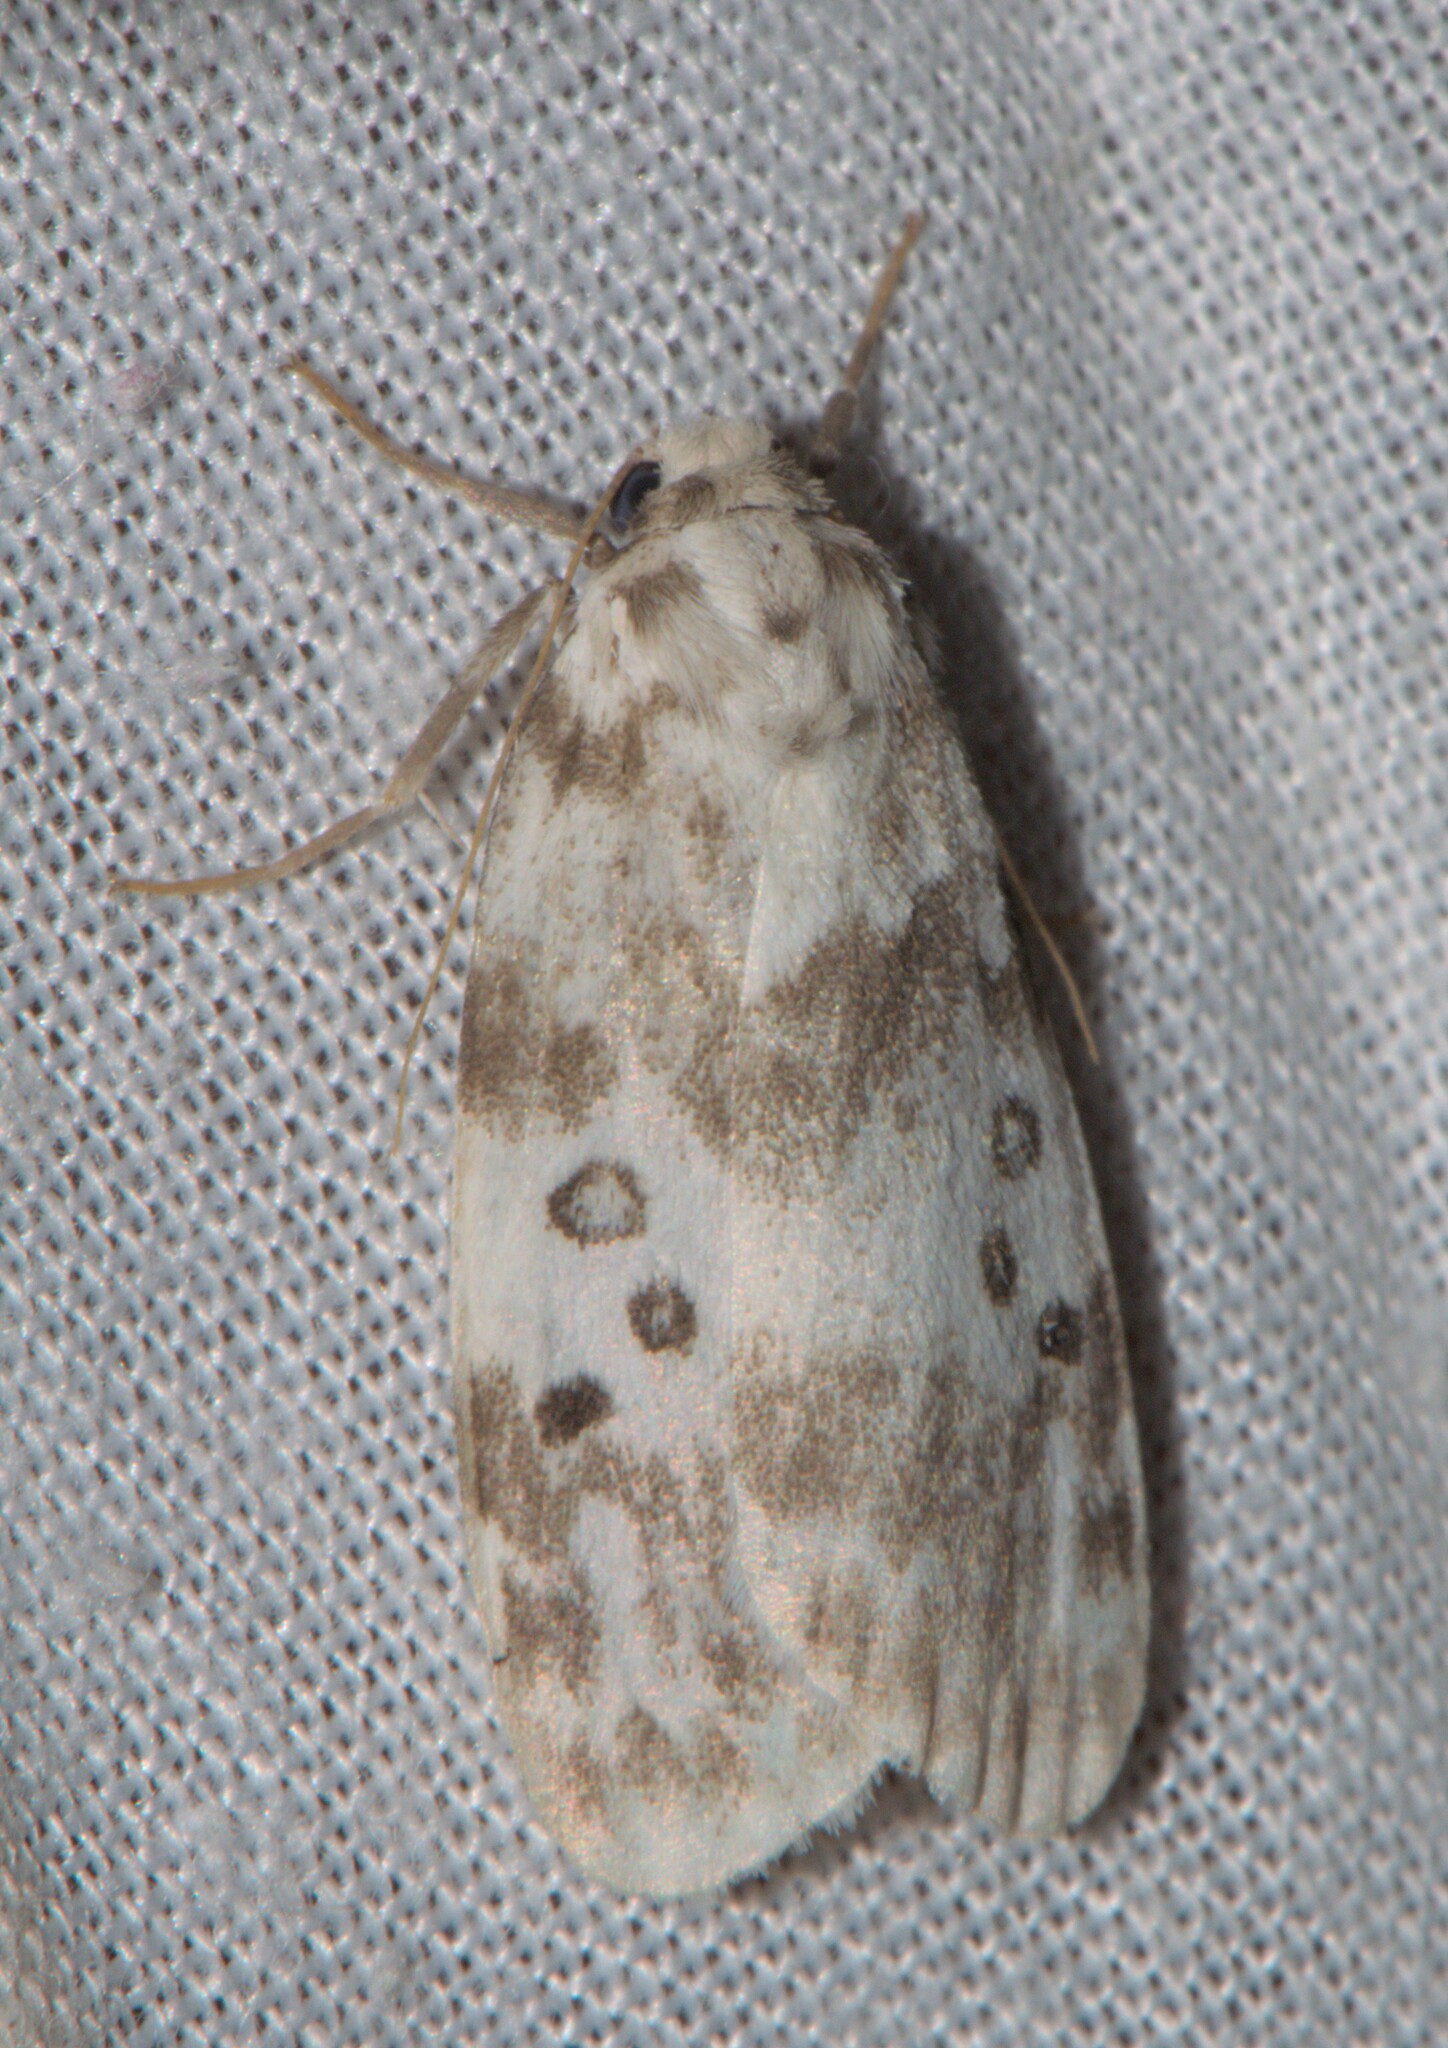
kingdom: Animalia
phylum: Arthropoda
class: Insecta
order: Lepidoptera
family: Erebidae
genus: Cyana
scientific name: Cyana detrita
